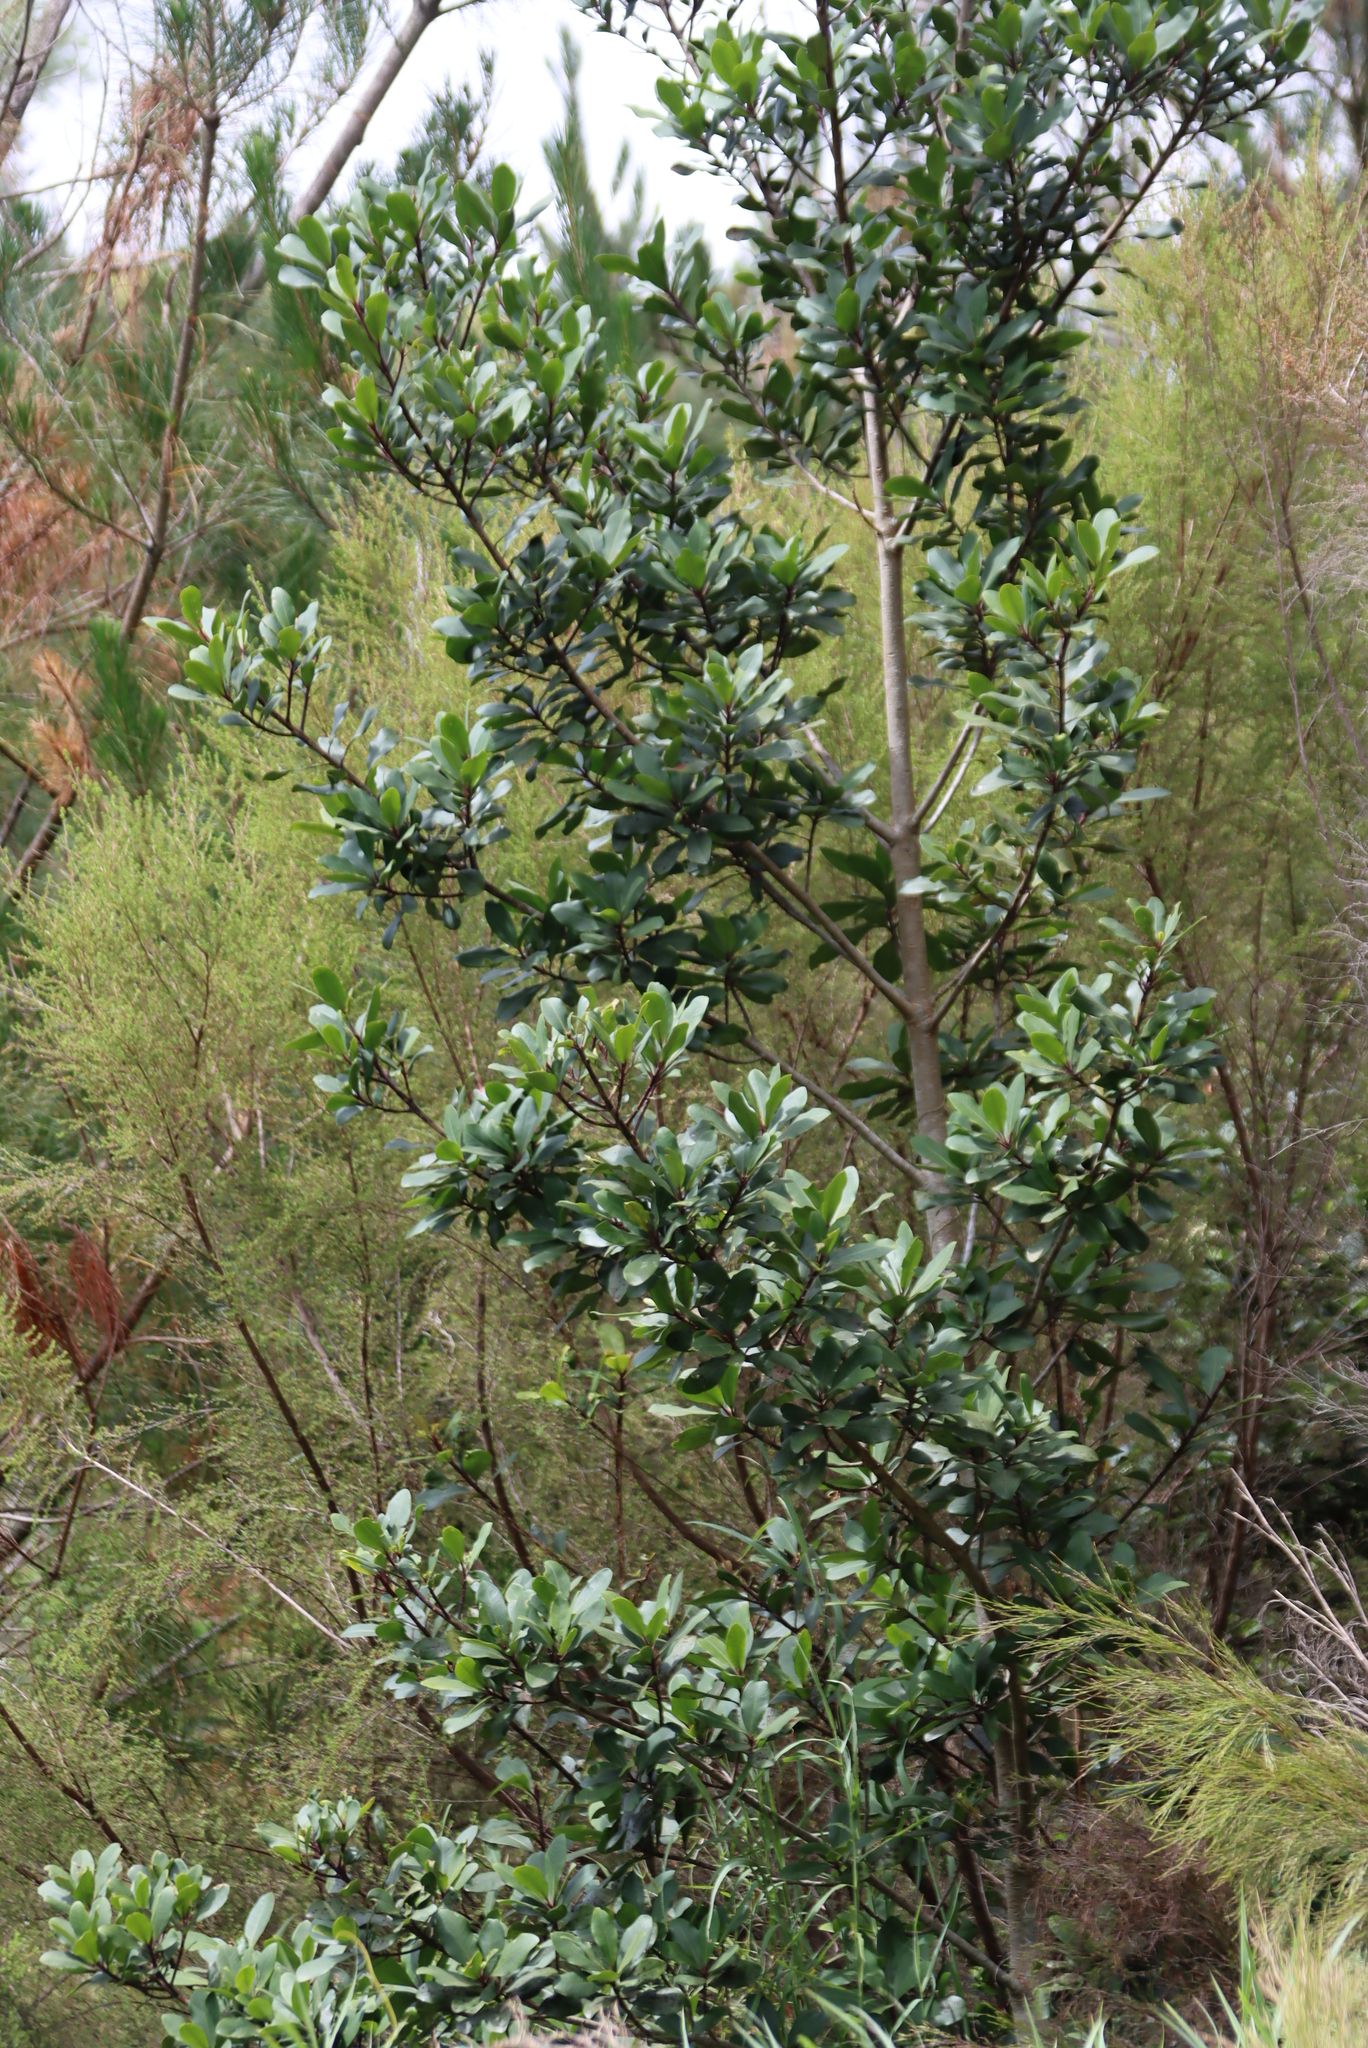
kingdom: Plantae
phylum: Tracheophyta
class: Magnoliopsida
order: Ericales
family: Primulaceae
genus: Myrsine
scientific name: Myrsine melanophloeos
